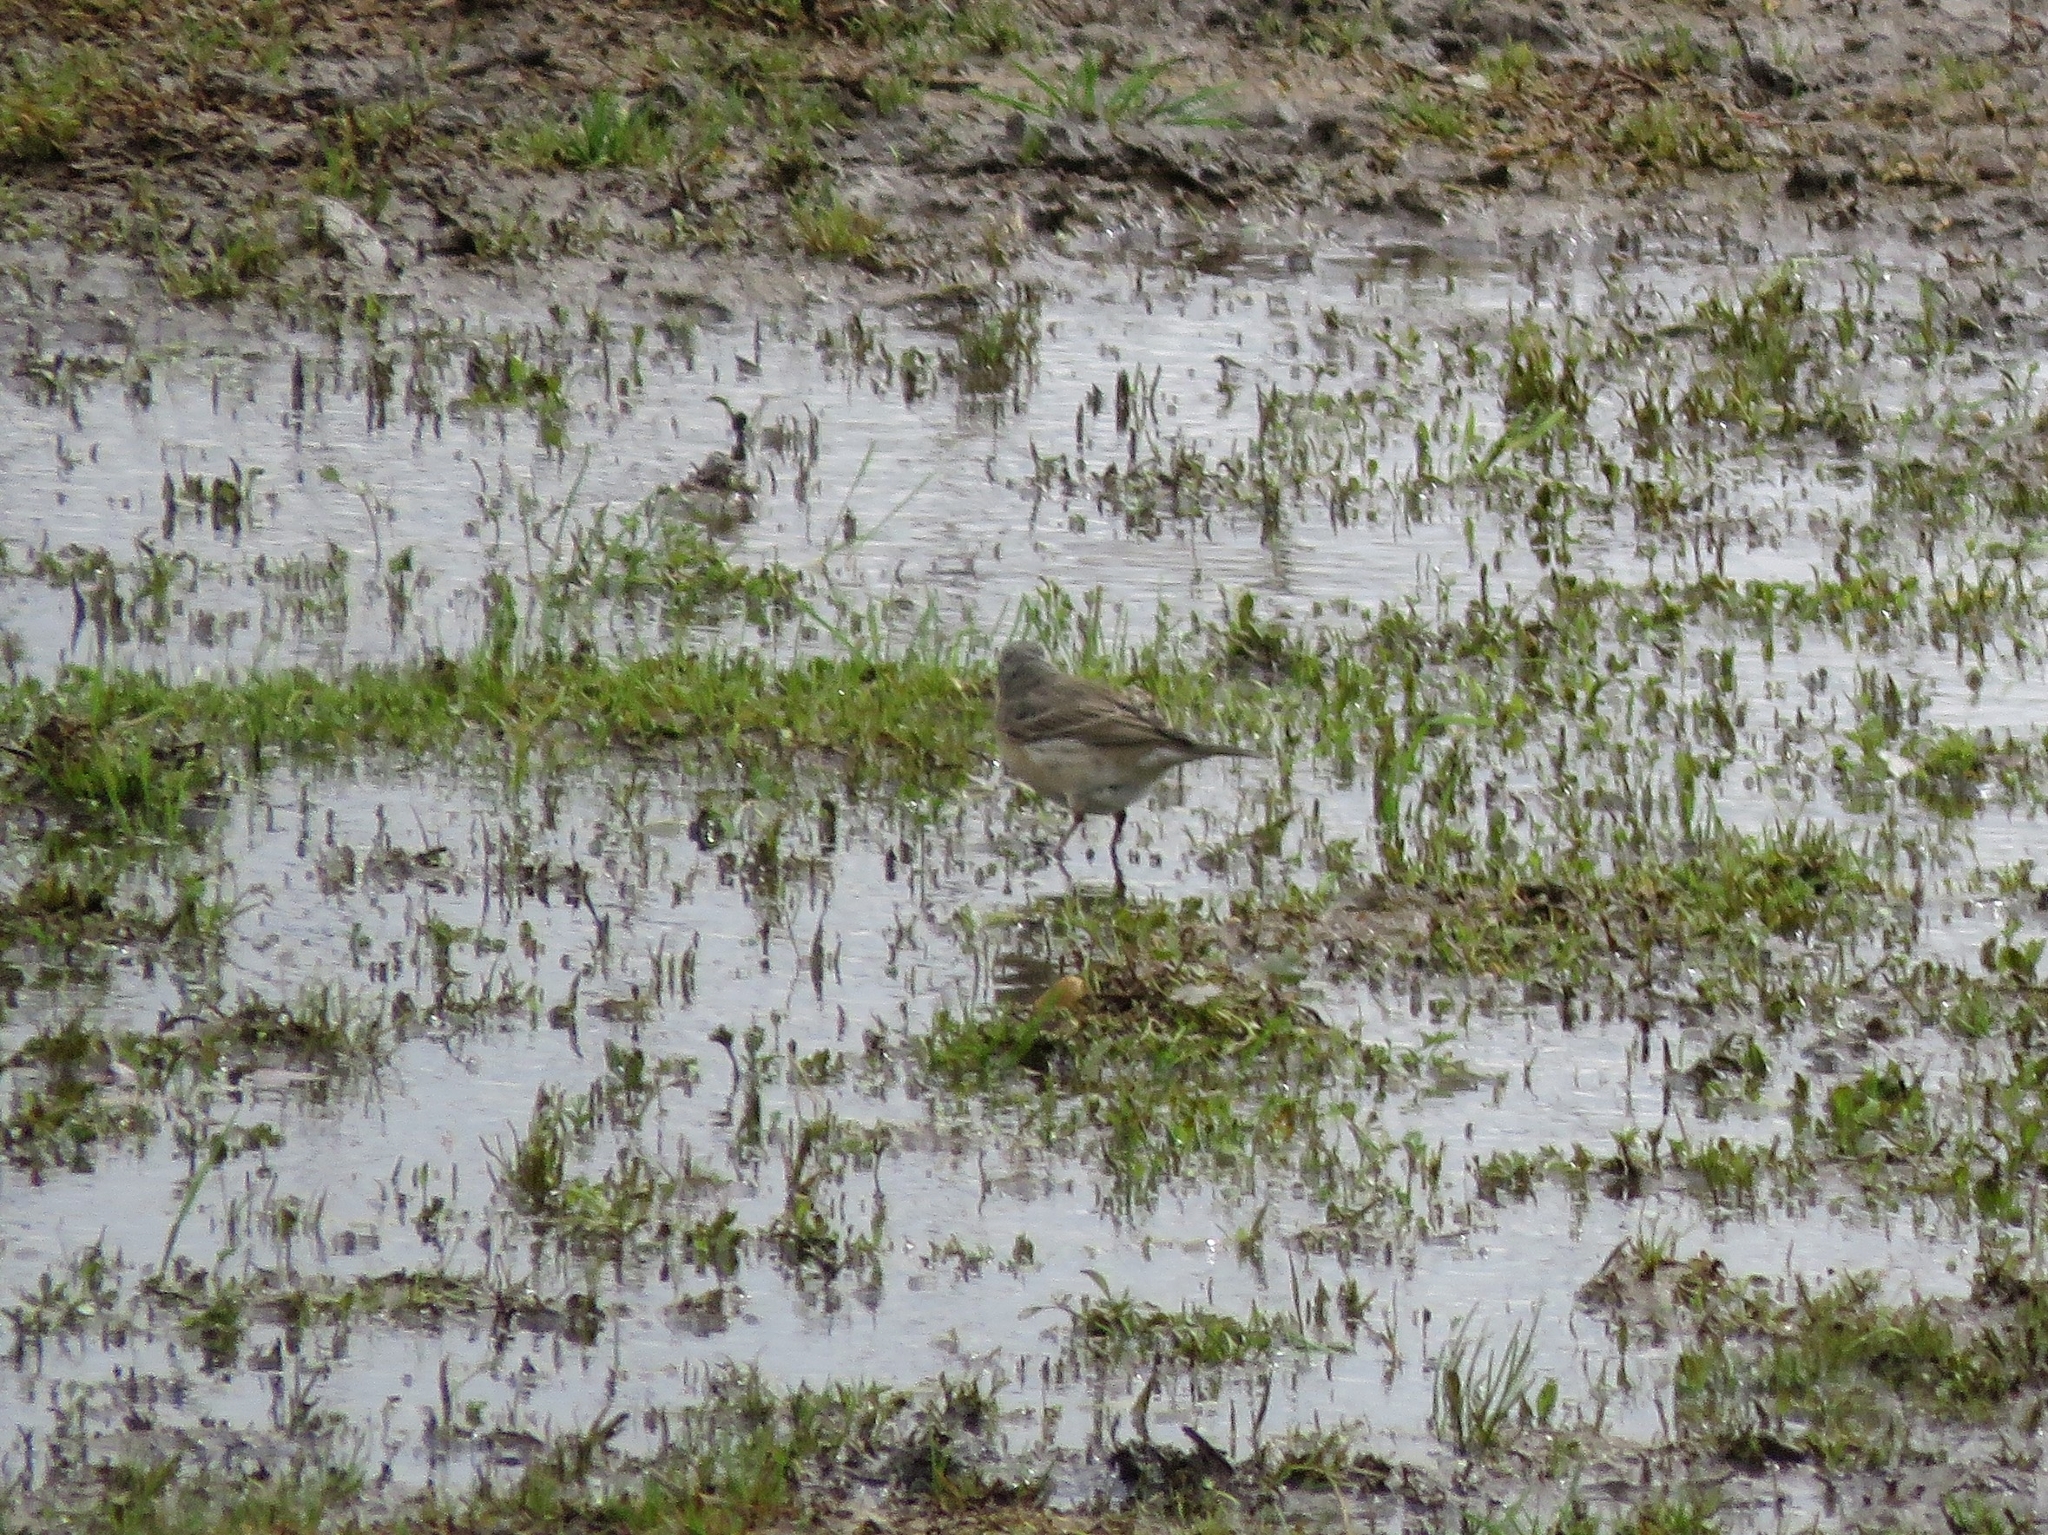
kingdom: Animalia
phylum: Chordata
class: Aves
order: Passeriformes
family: Motacillidae
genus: Anthus
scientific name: Anthus spinoletta
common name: Water pipit
